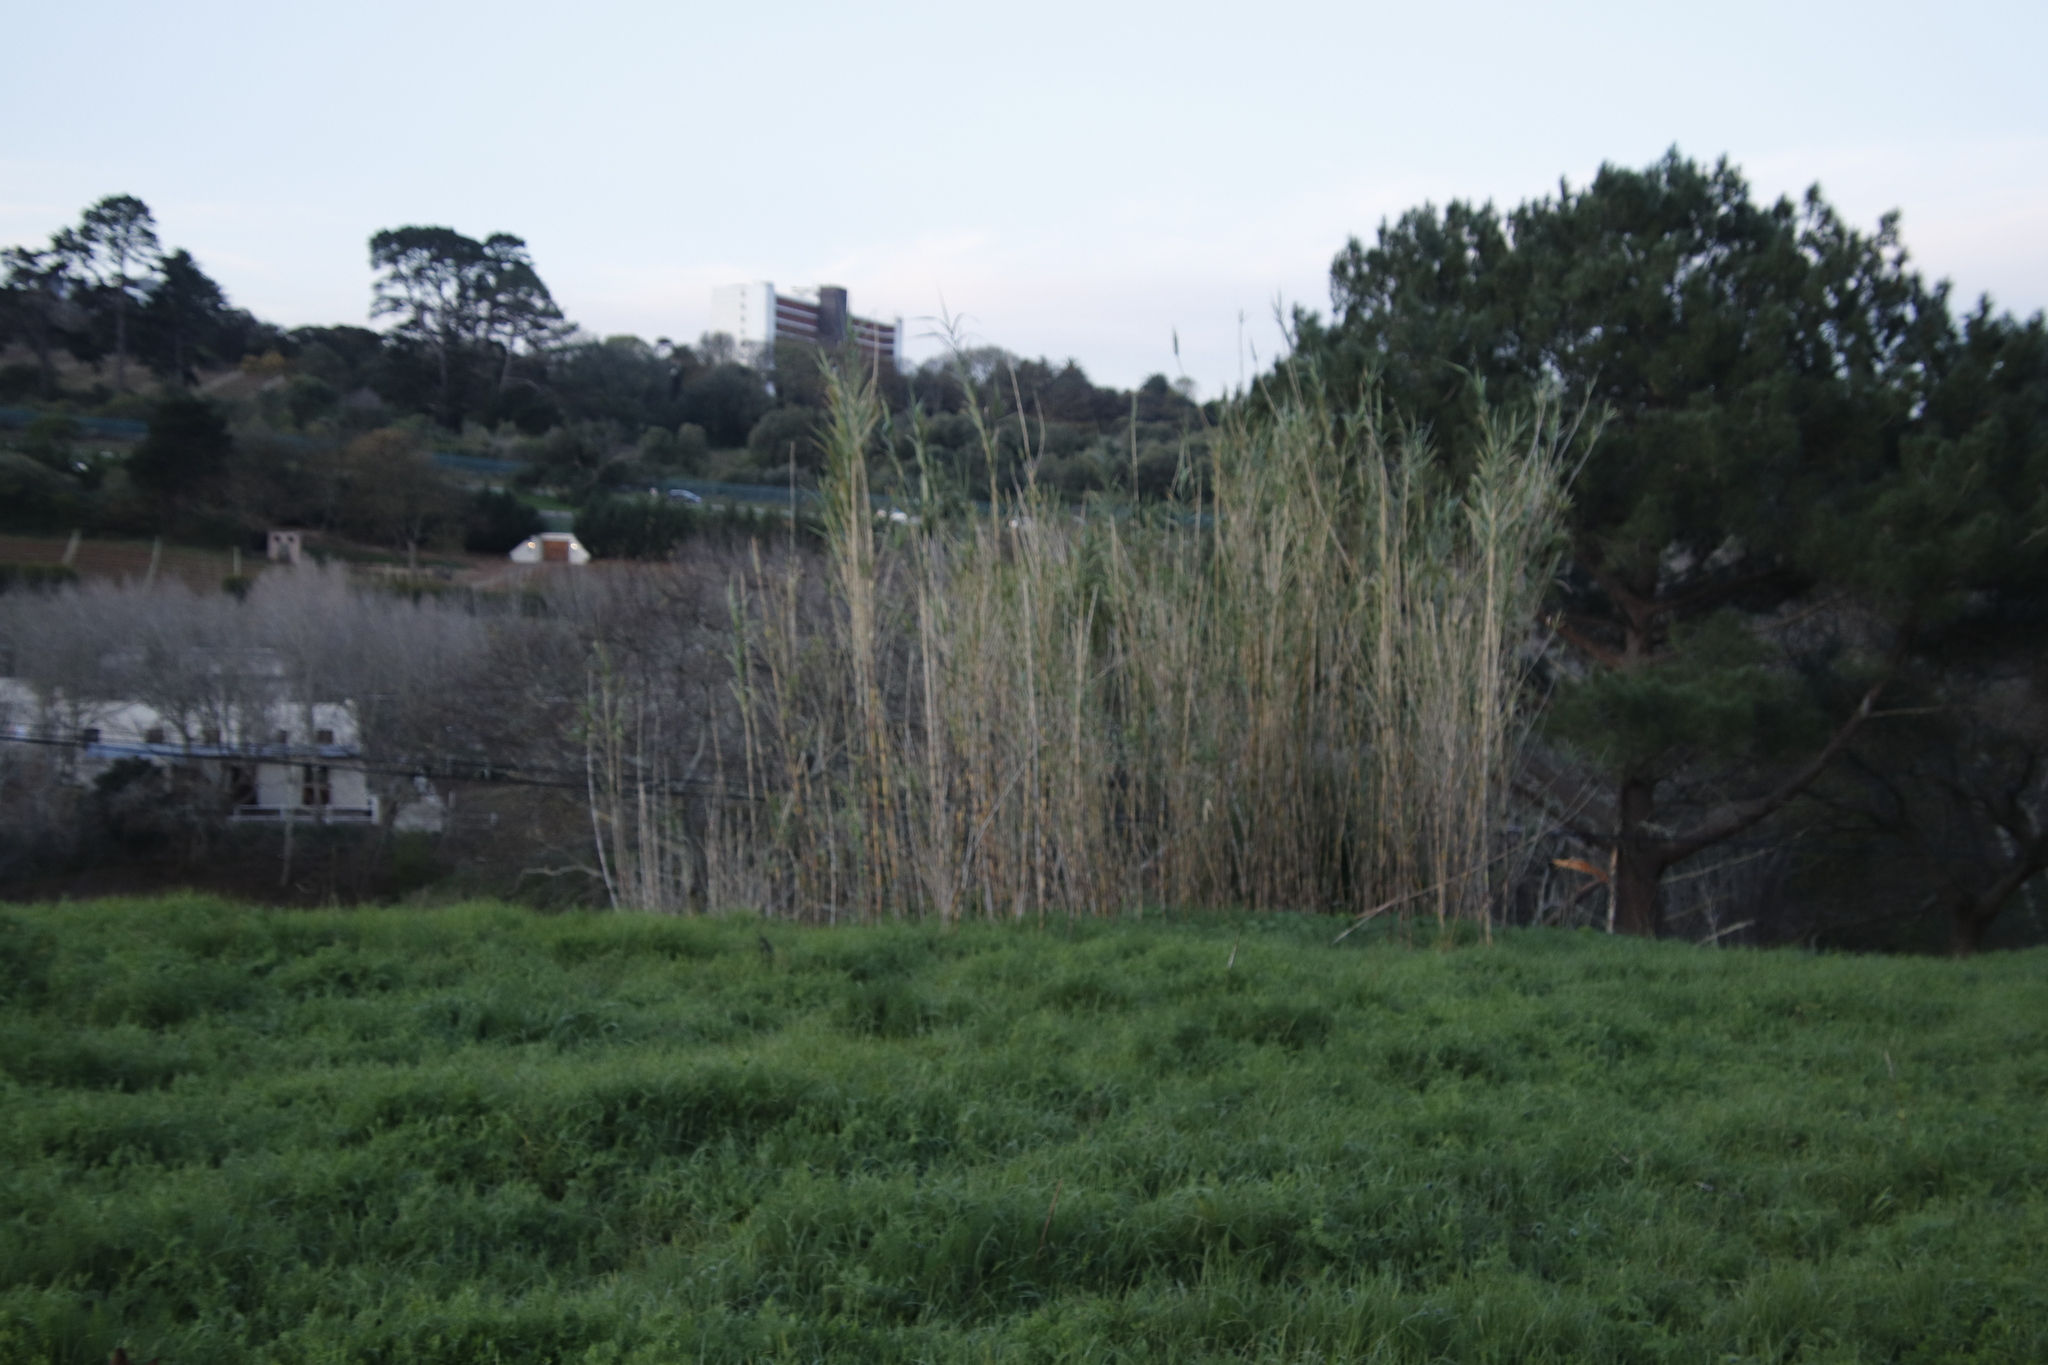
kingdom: Plantae
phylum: Tracheophyta
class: Liliopsida
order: Poales
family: Poaceae
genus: Arundo
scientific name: Arundo donax
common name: Giant reed
